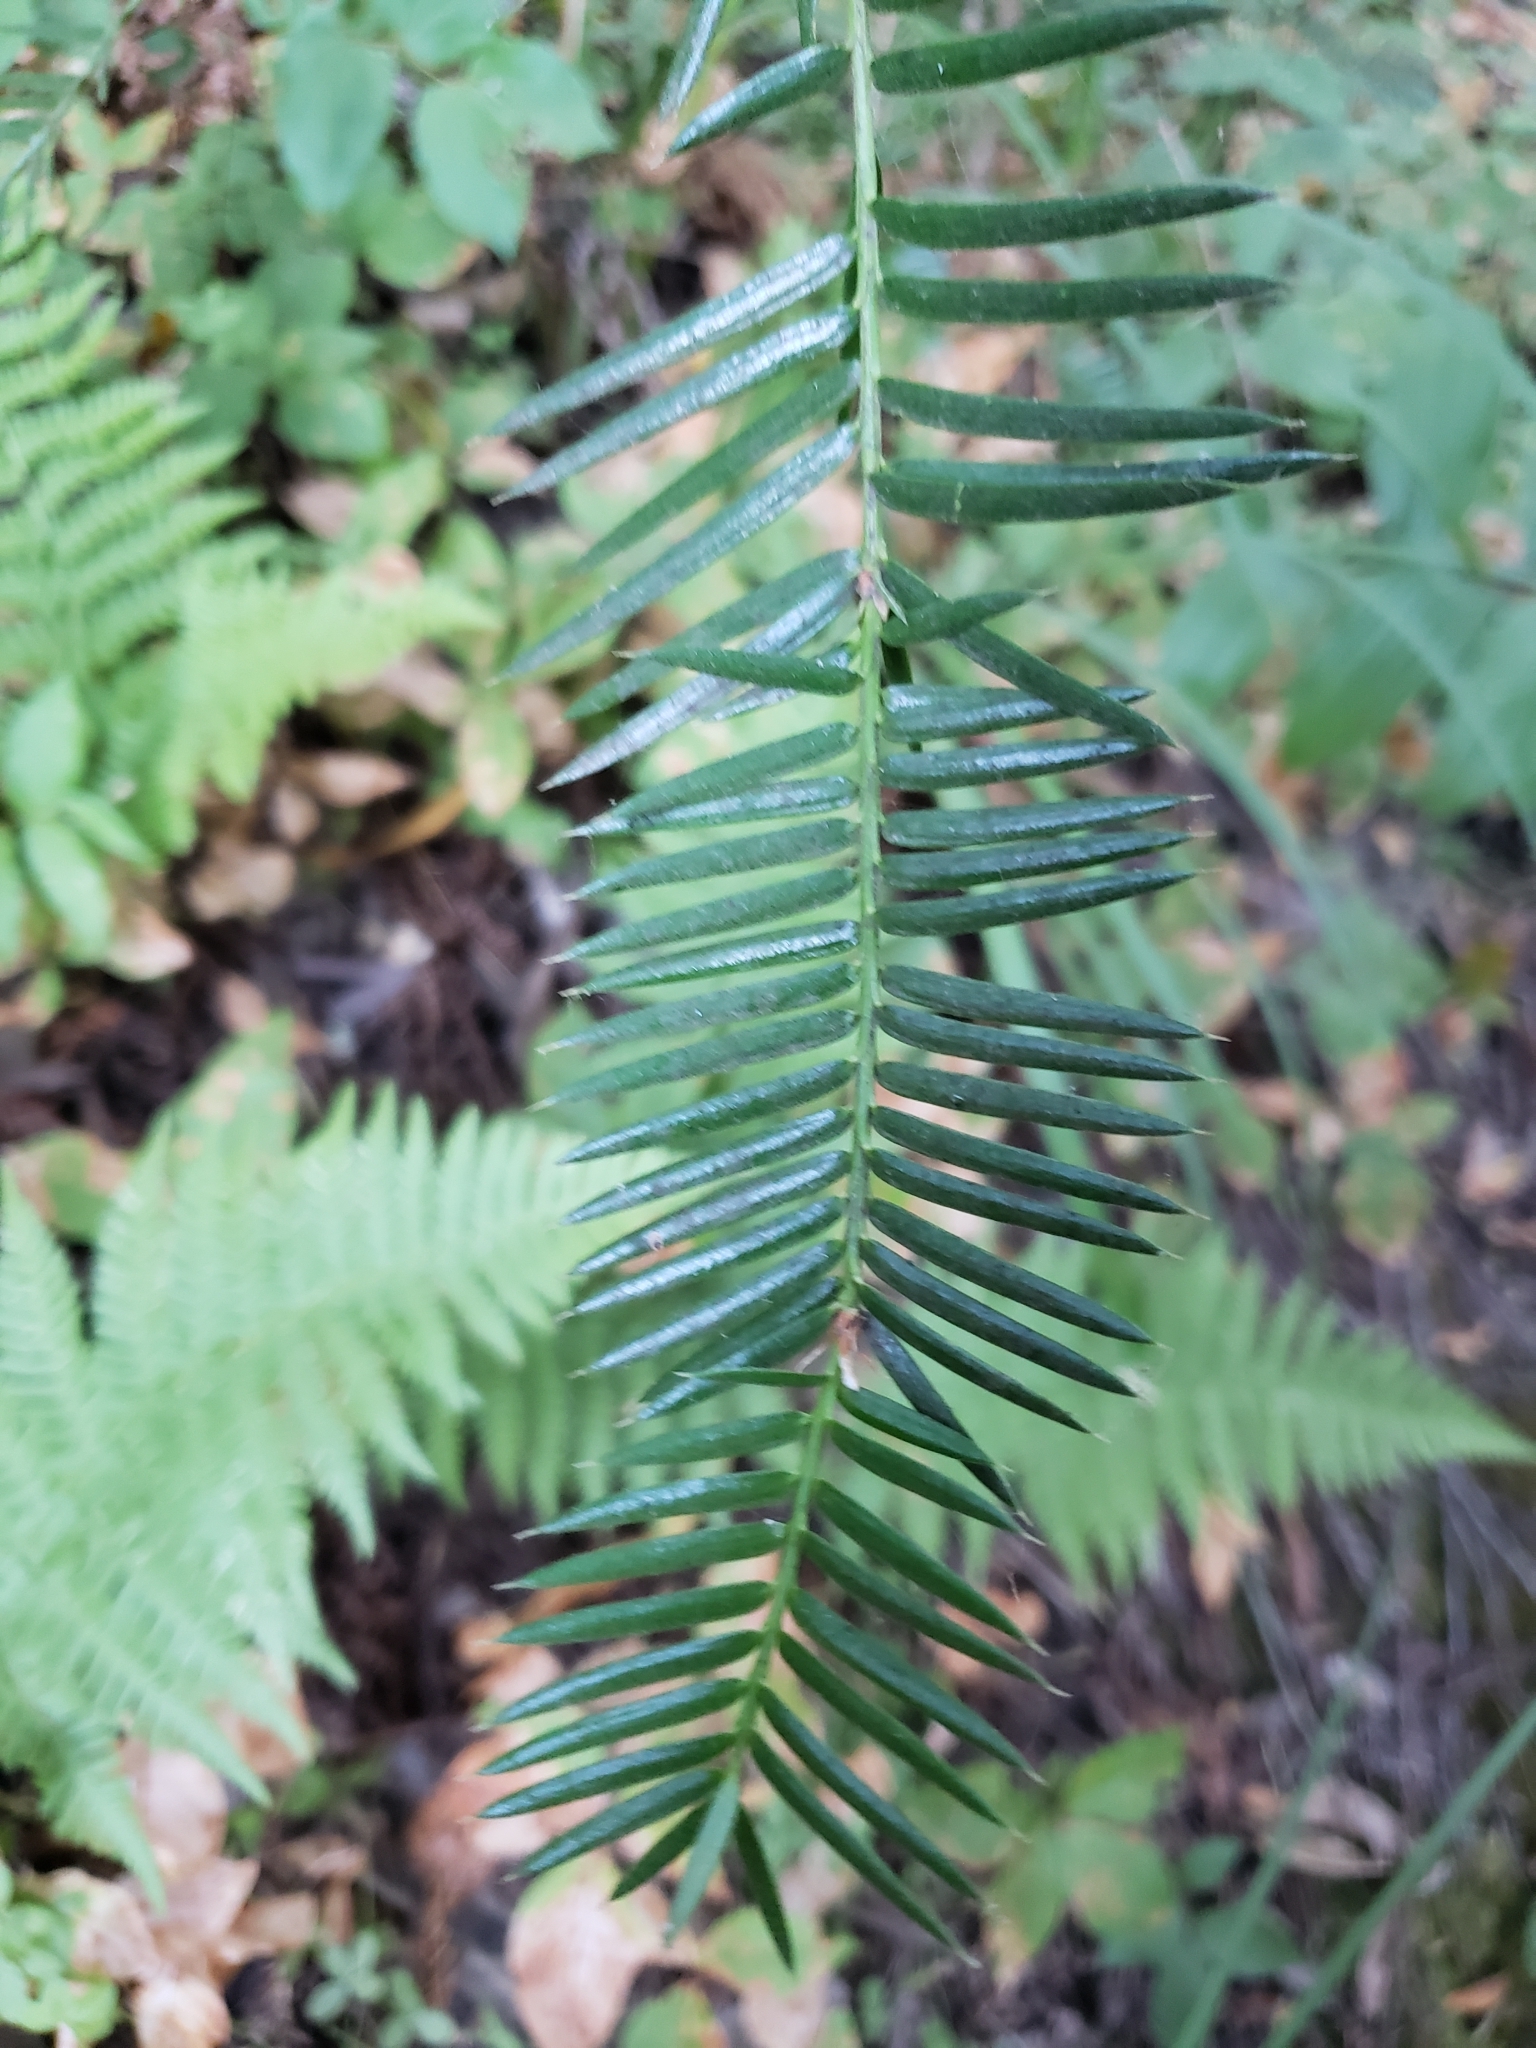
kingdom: Plantae
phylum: Tracheophyta
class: Pinopsida
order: Pinales
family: Taxaceae
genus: Torreya
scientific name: Torreya californica
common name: California torreya
